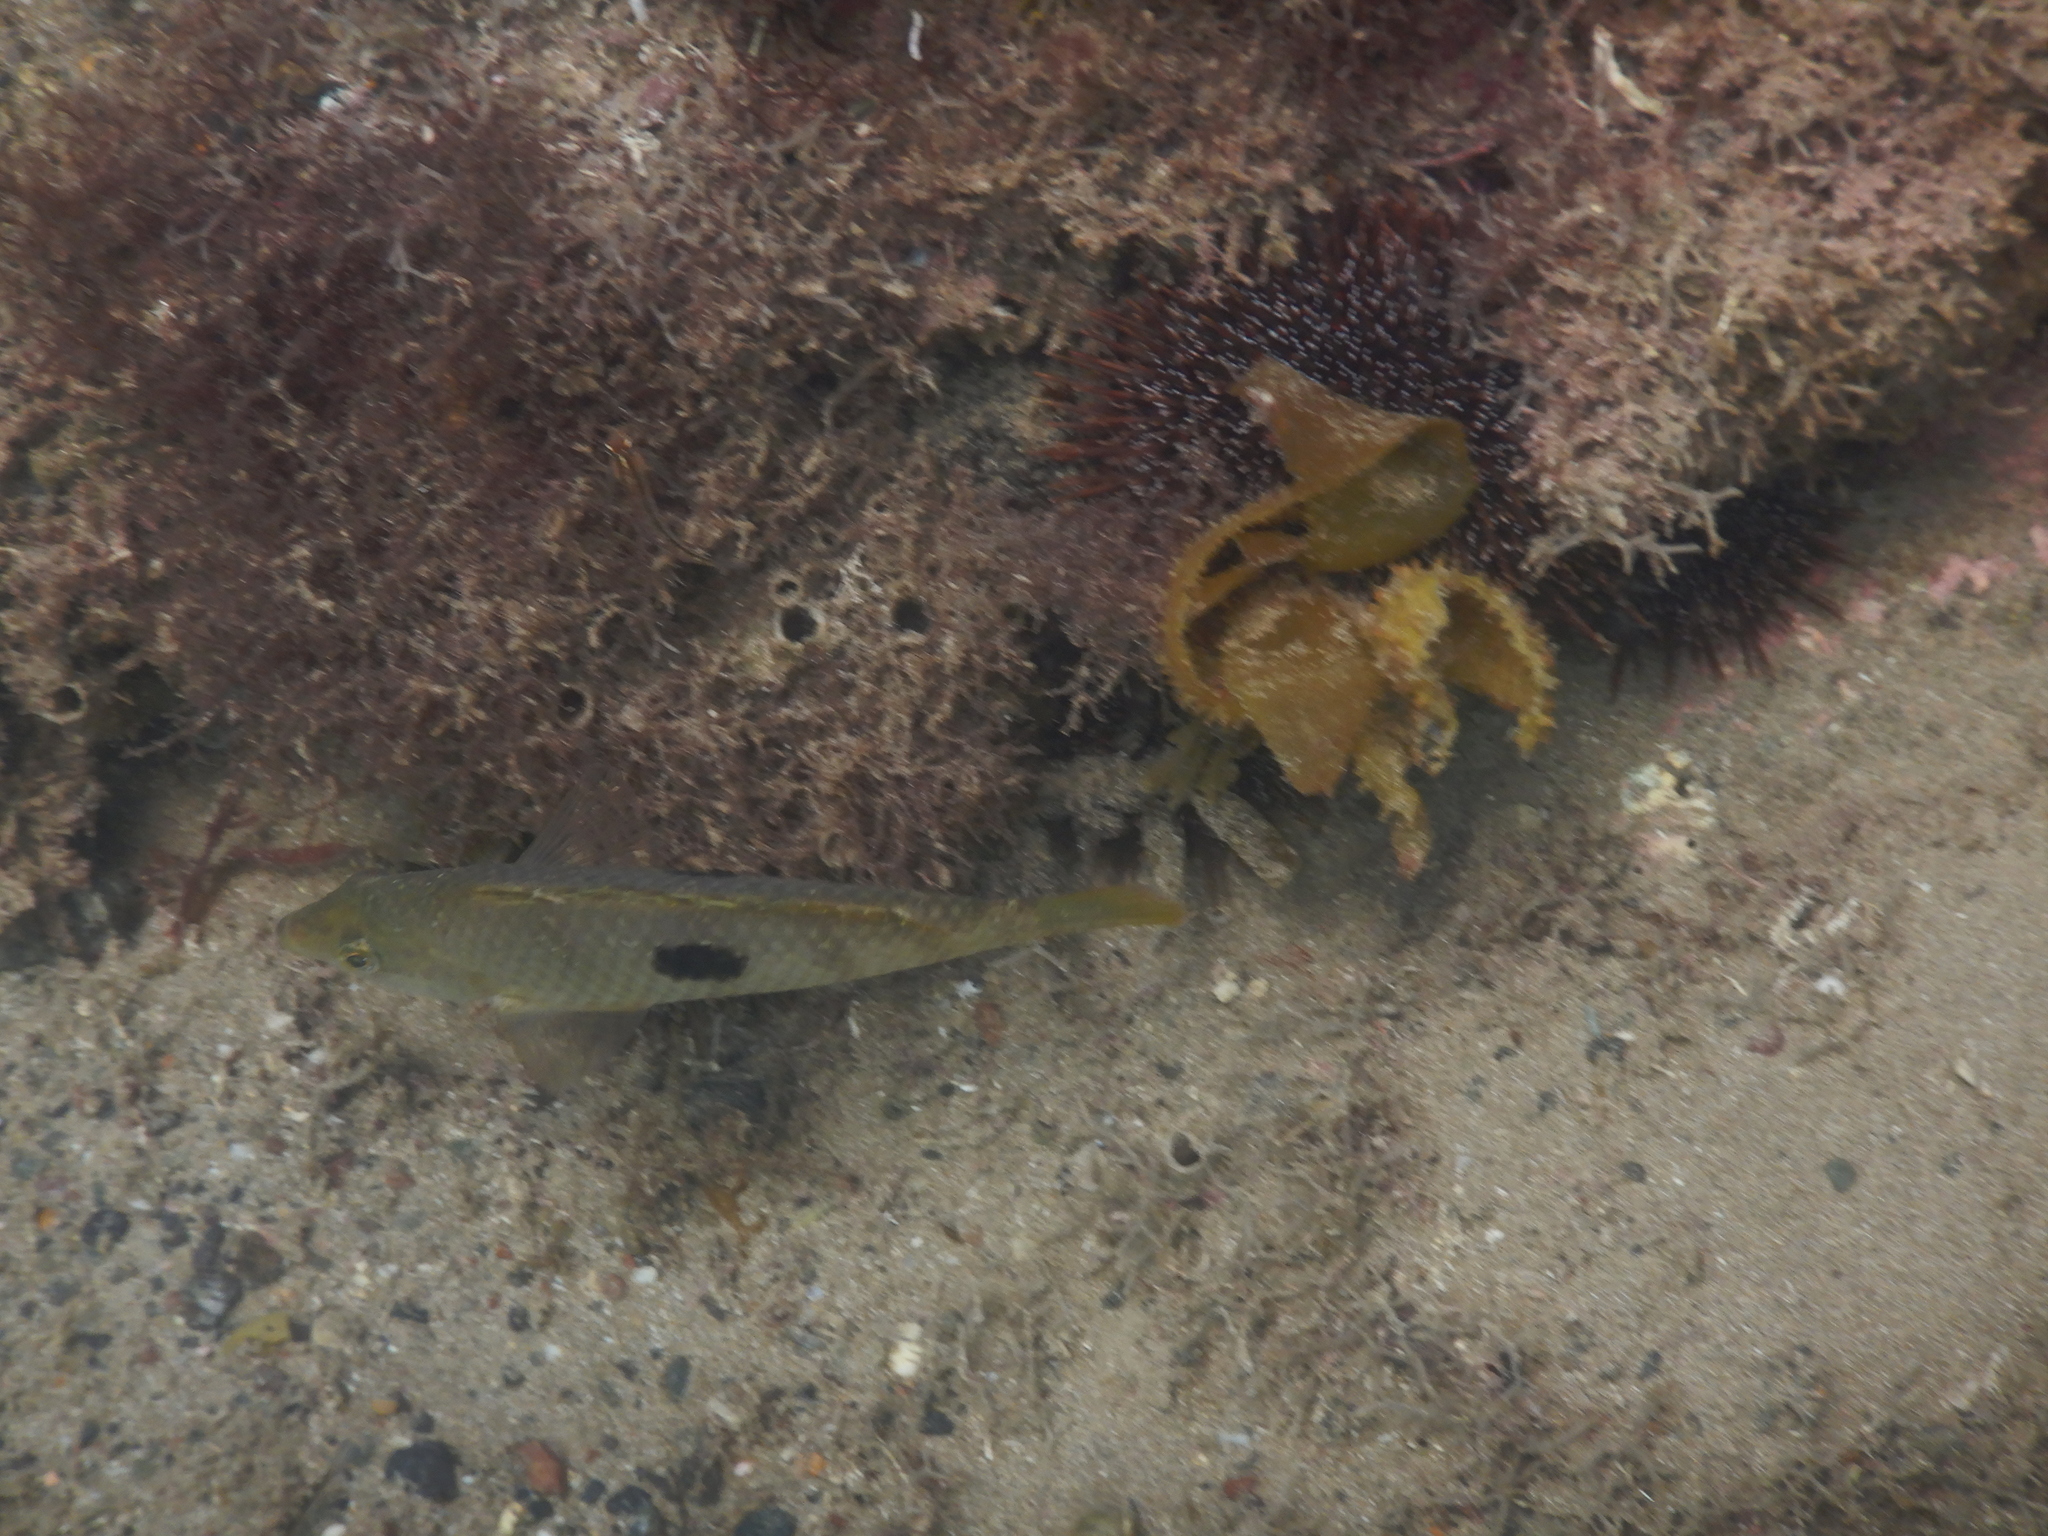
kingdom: Animalia
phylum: Chordata
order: Perciformes
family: Labridae
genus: Notolabrus
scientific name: Notolabrus celidotus
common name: Spotty
